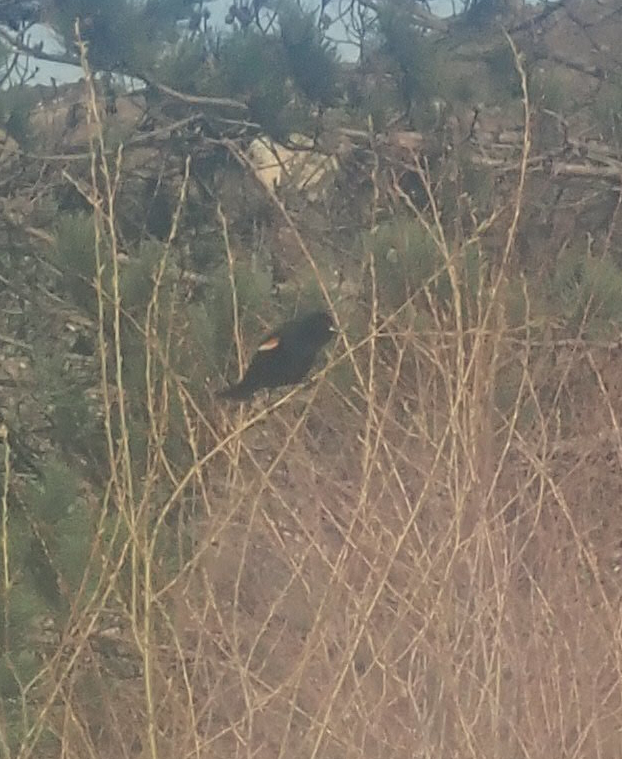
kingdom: Animalia
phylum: Chordata
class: Aves
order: Passeriformes
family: Icteridae
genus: Agelaius
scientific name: Agelaius phoeniceus
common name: Red-winged blackbird
